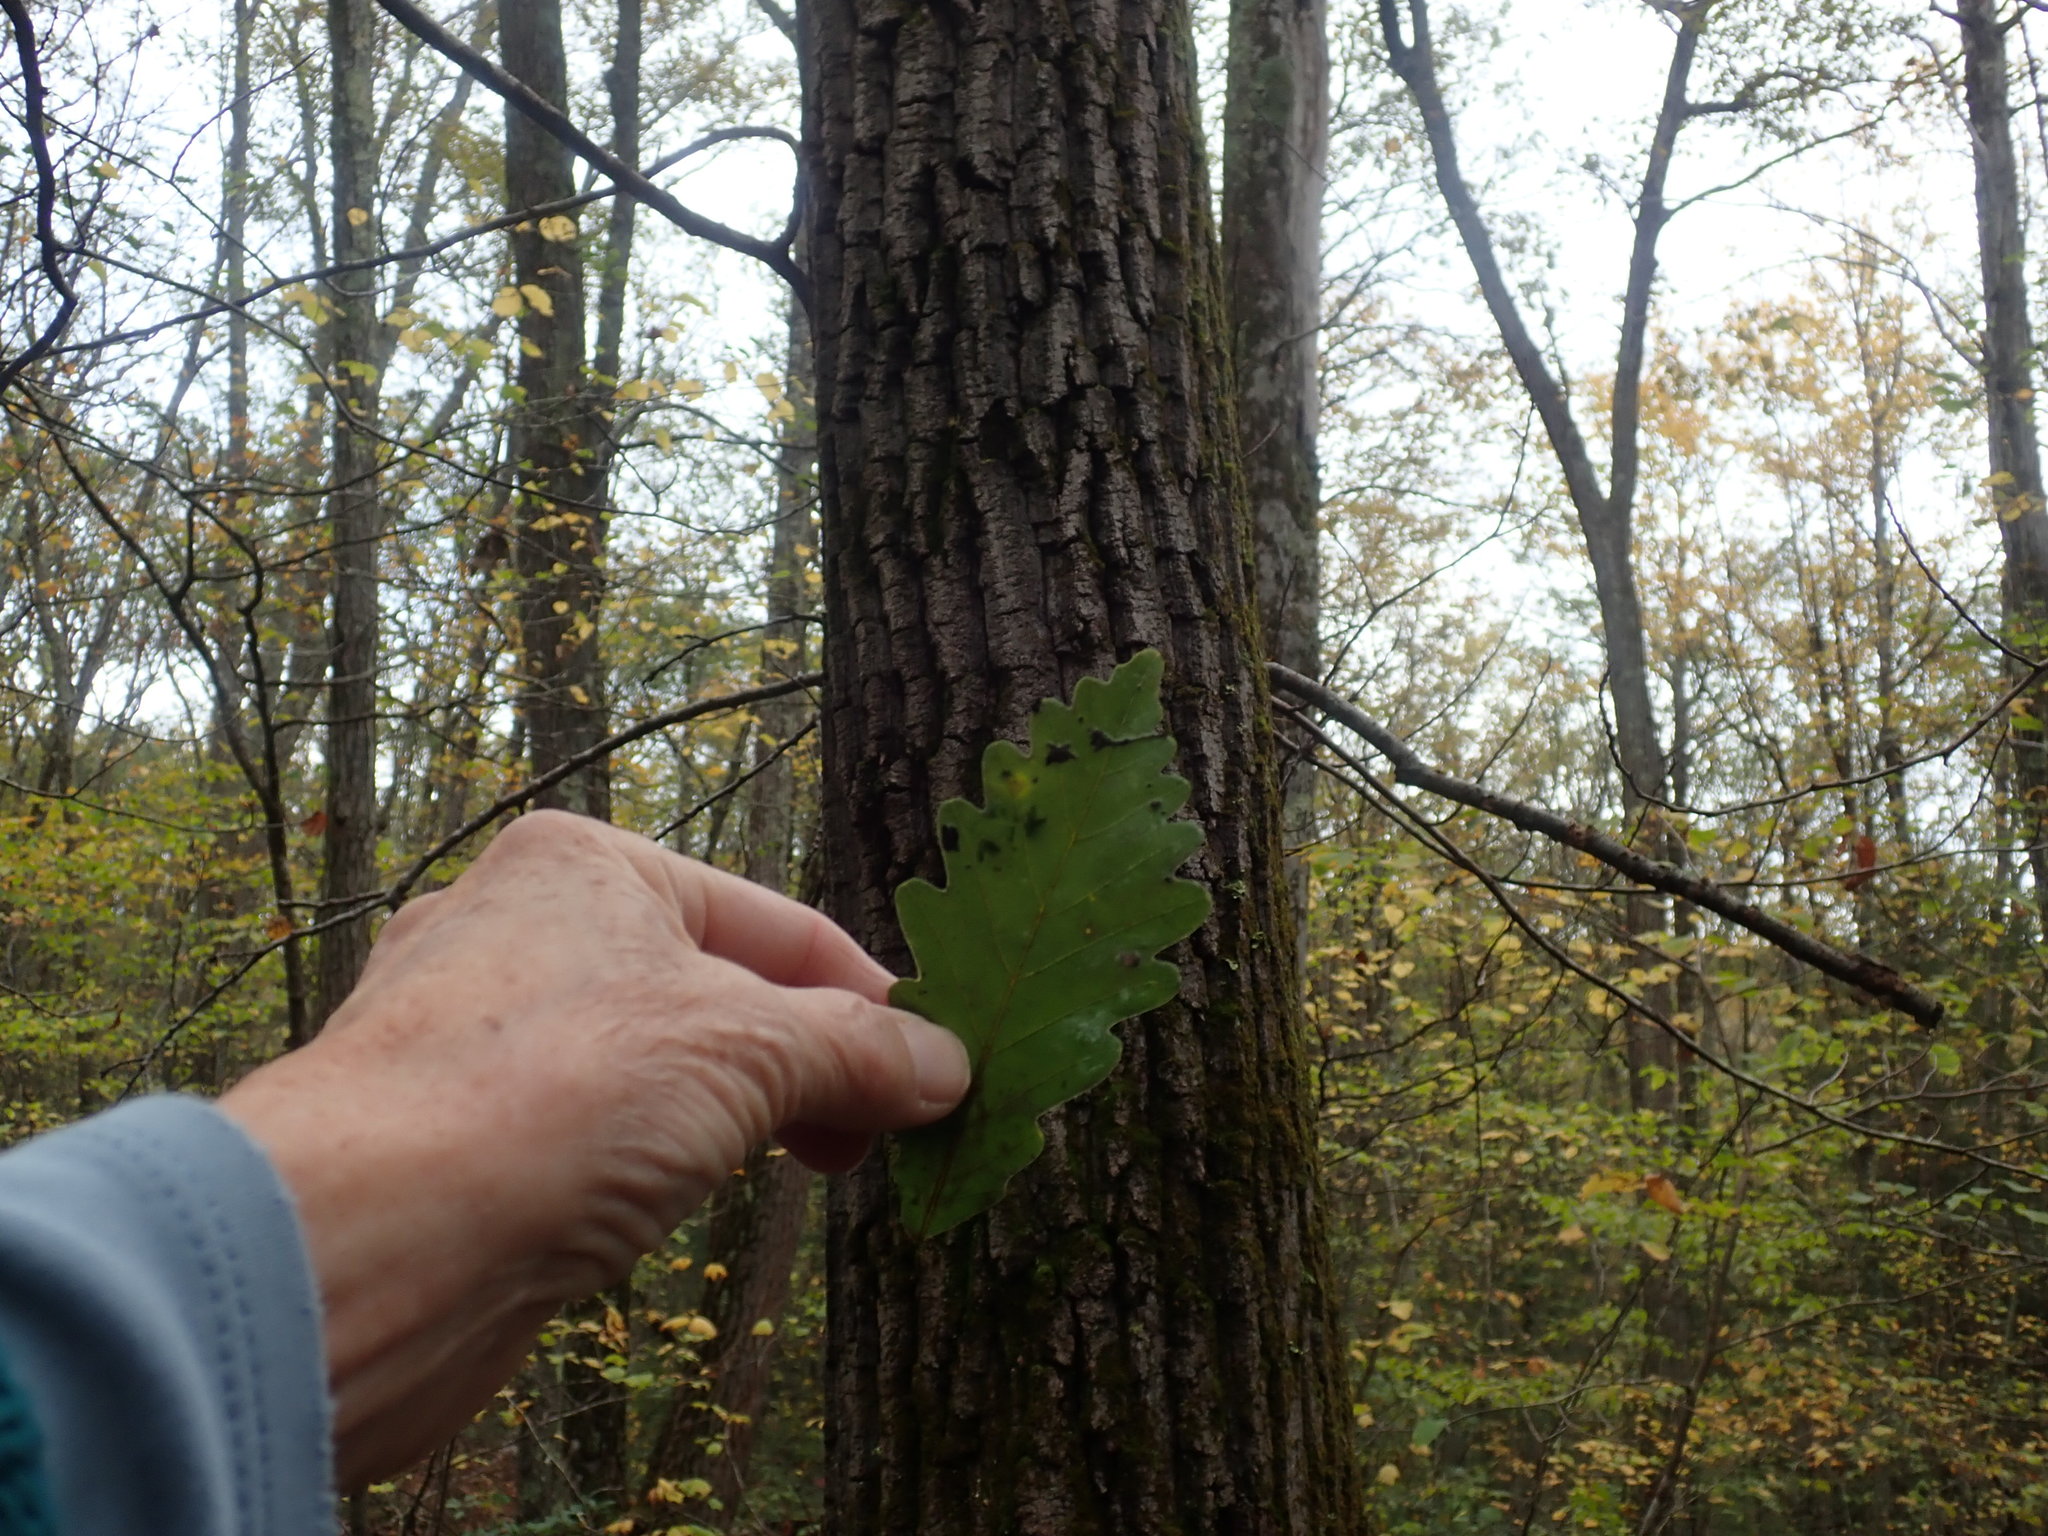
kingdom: Plantae
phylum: Tracheophyta
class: Magnoliopsida
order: Fagales
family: Fagaceae
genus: Quercus
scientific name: Quercus montana
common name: Chestnut oak
